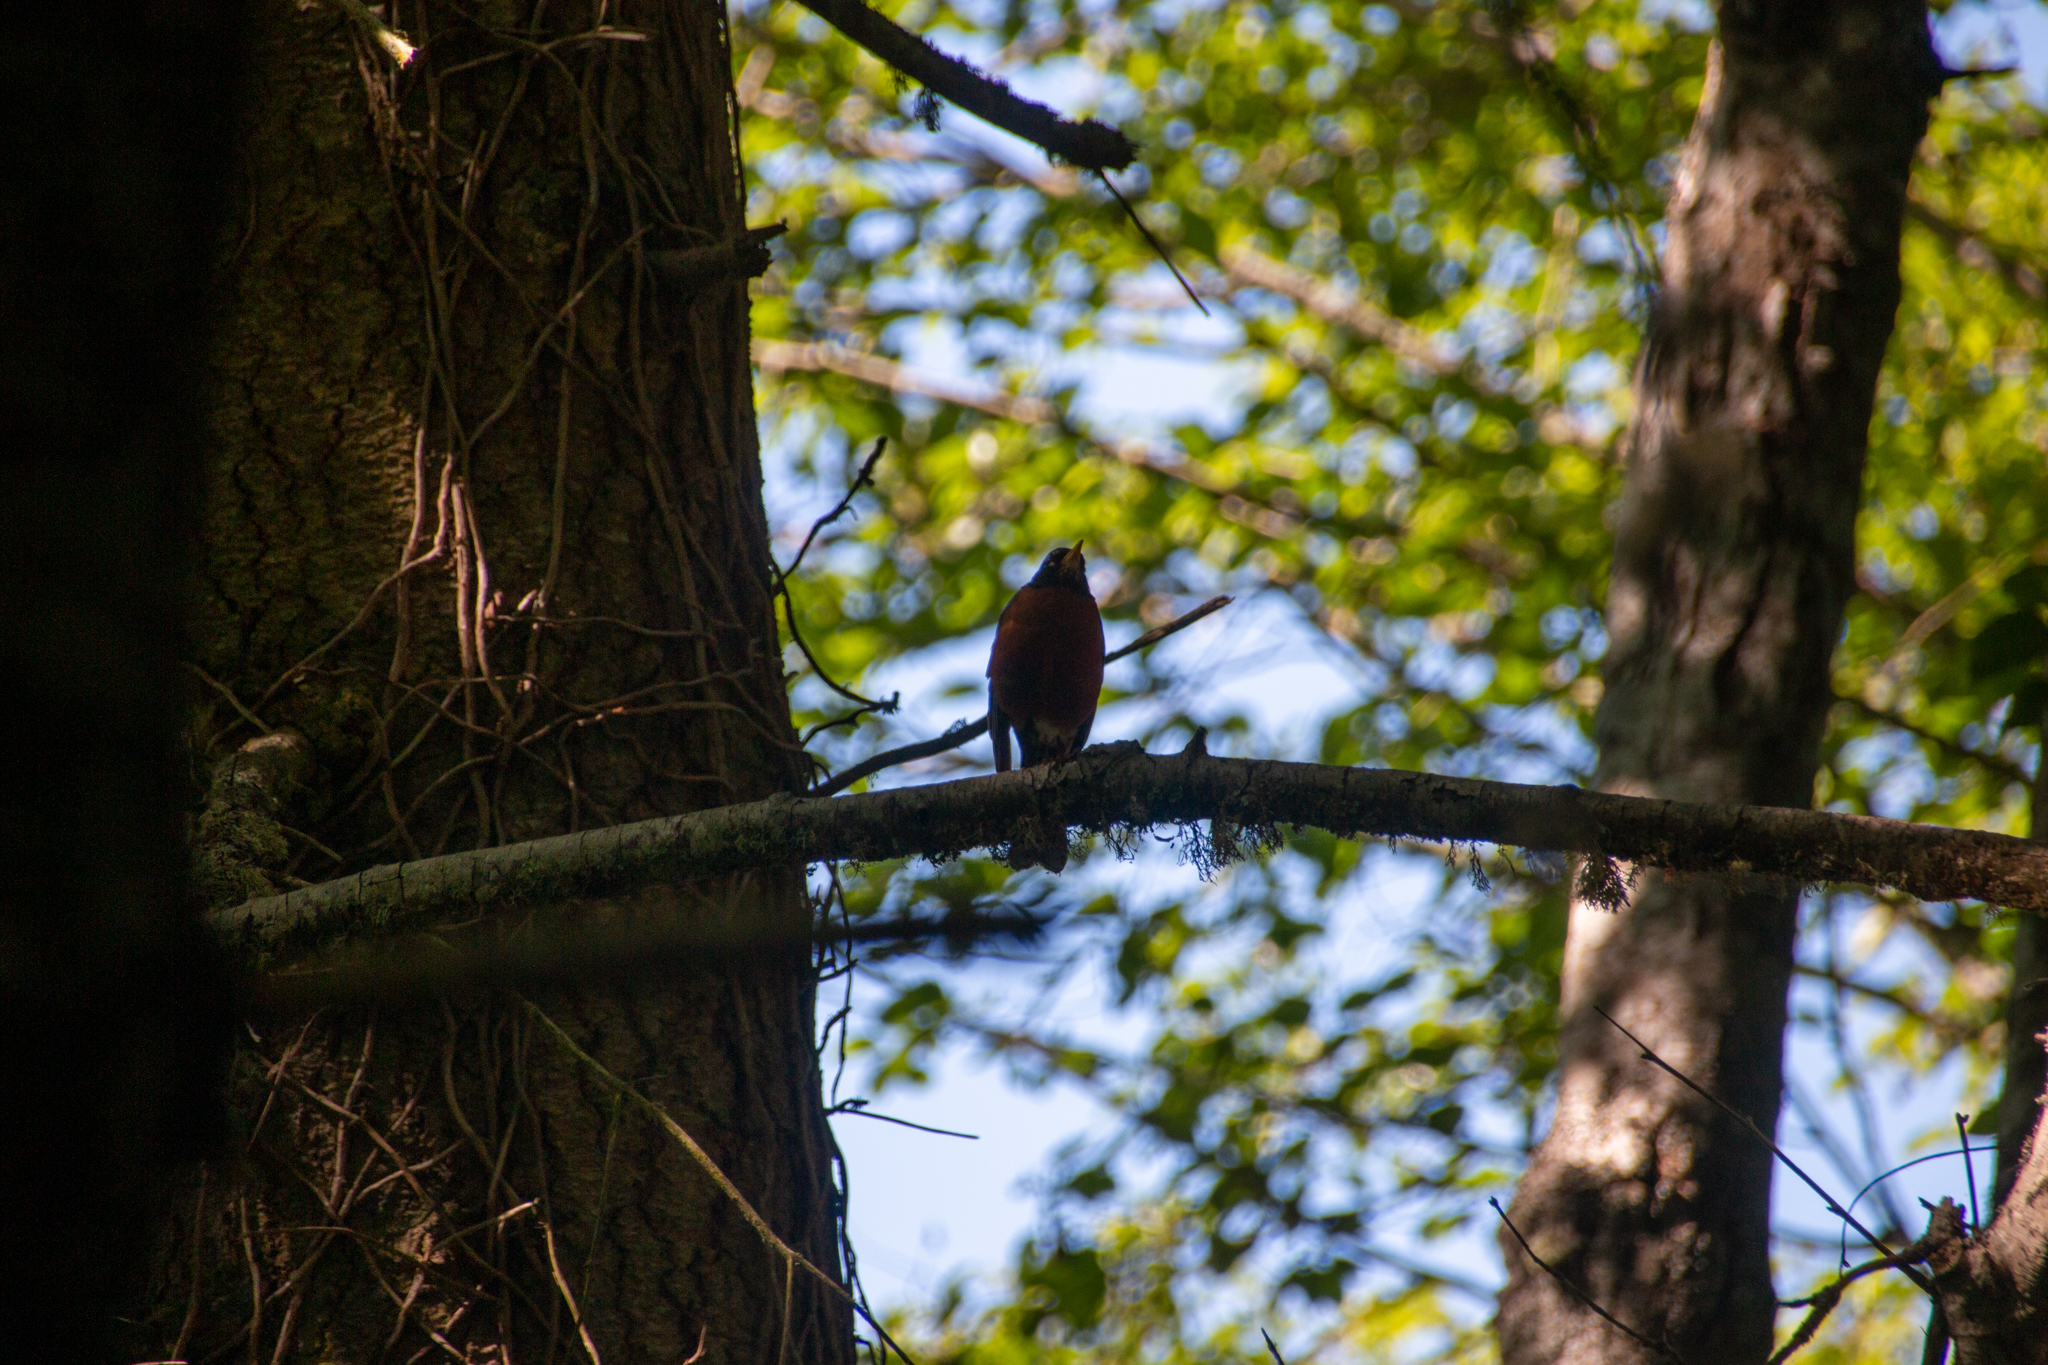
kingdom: Animalia
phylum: Chordata
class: Aves
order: Passeriformes
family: Turdidae
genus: Turdus
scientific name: Turdus migratorius
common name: American robin
